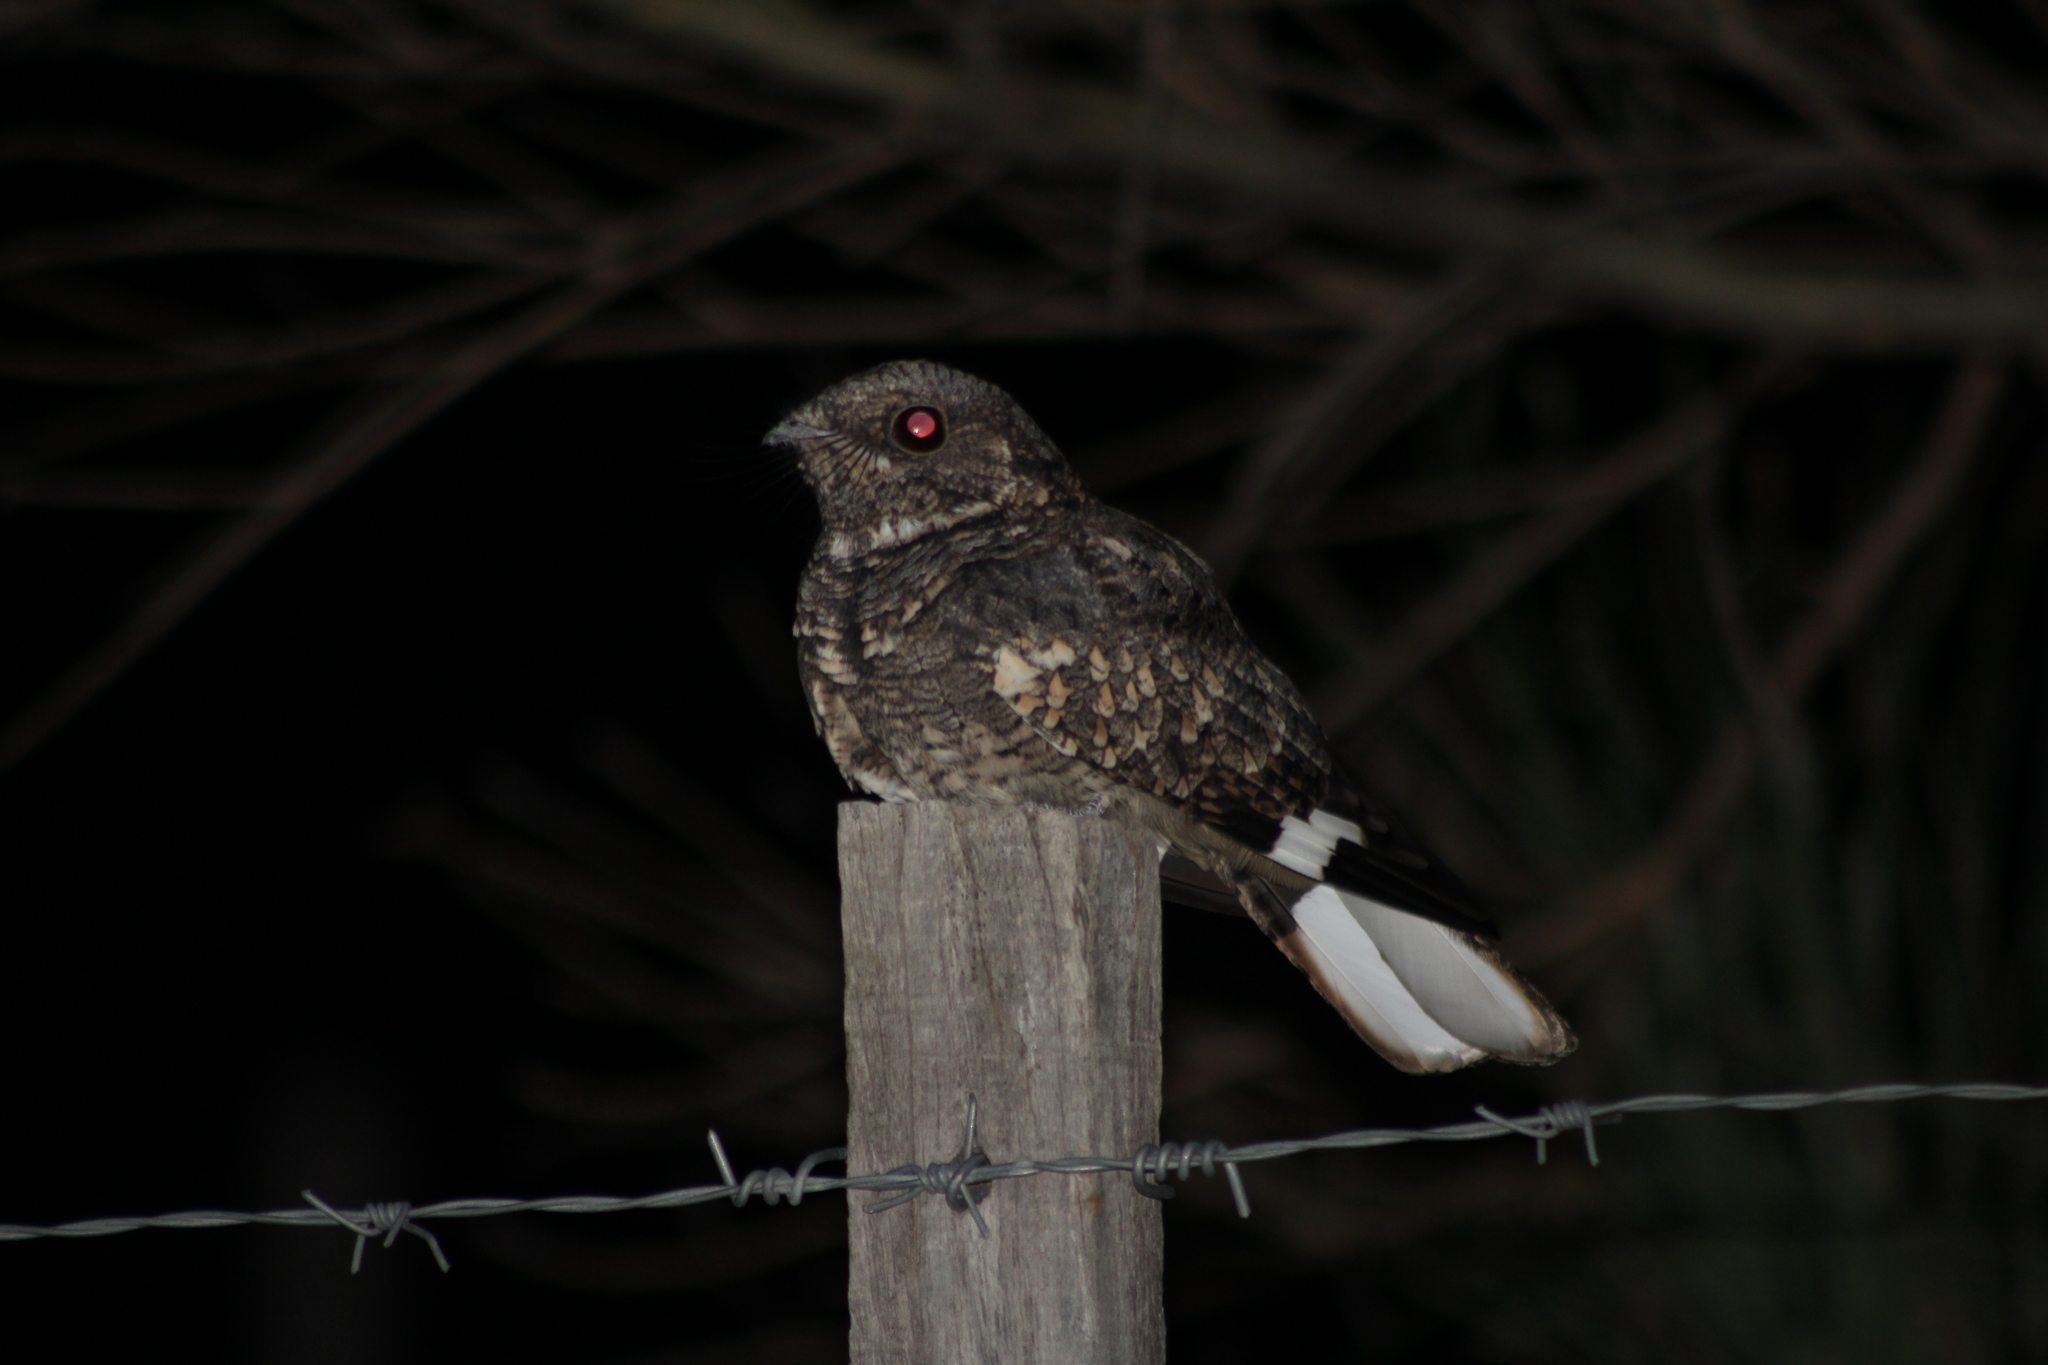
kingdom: Animalia
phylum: Chordata
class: Aves
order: Caprimulgiformes
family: Caprimulgidae
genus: Systellura
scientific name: Systellura longirostris
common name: Band-winged nightjar
